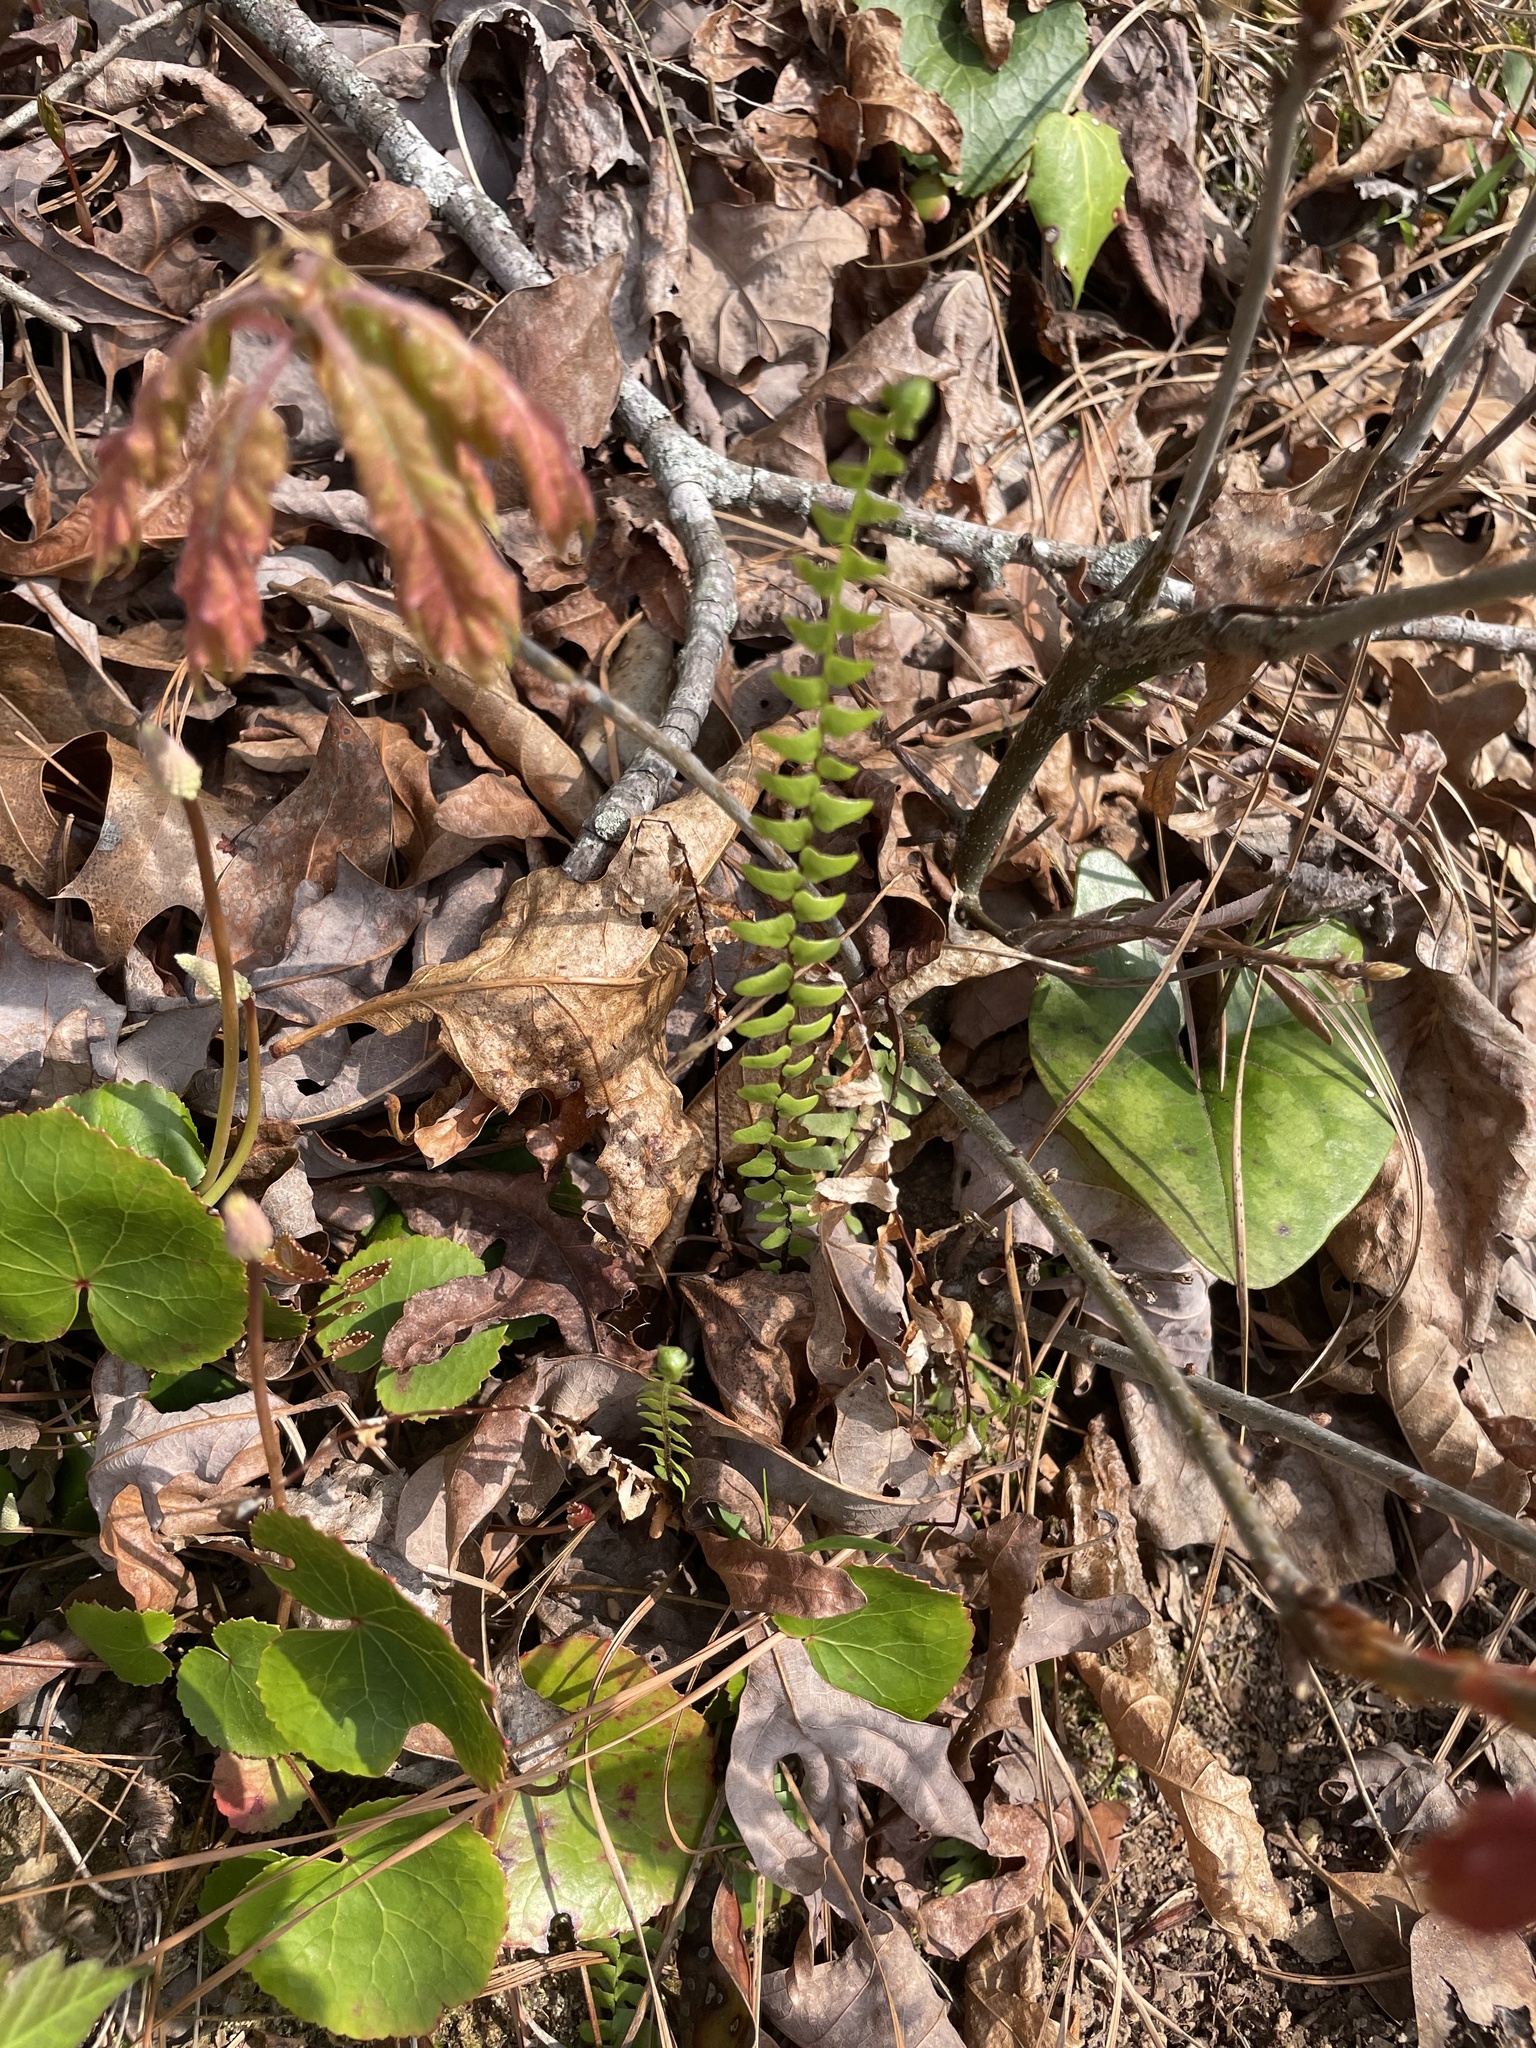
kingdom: Plantae
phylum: Tracheophyta
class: Polypodiopsida
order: Polypodiales
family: Aspleniaceae
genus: Asplenium
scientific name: Asplenium platyneuron
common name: Ebony spleenwort
